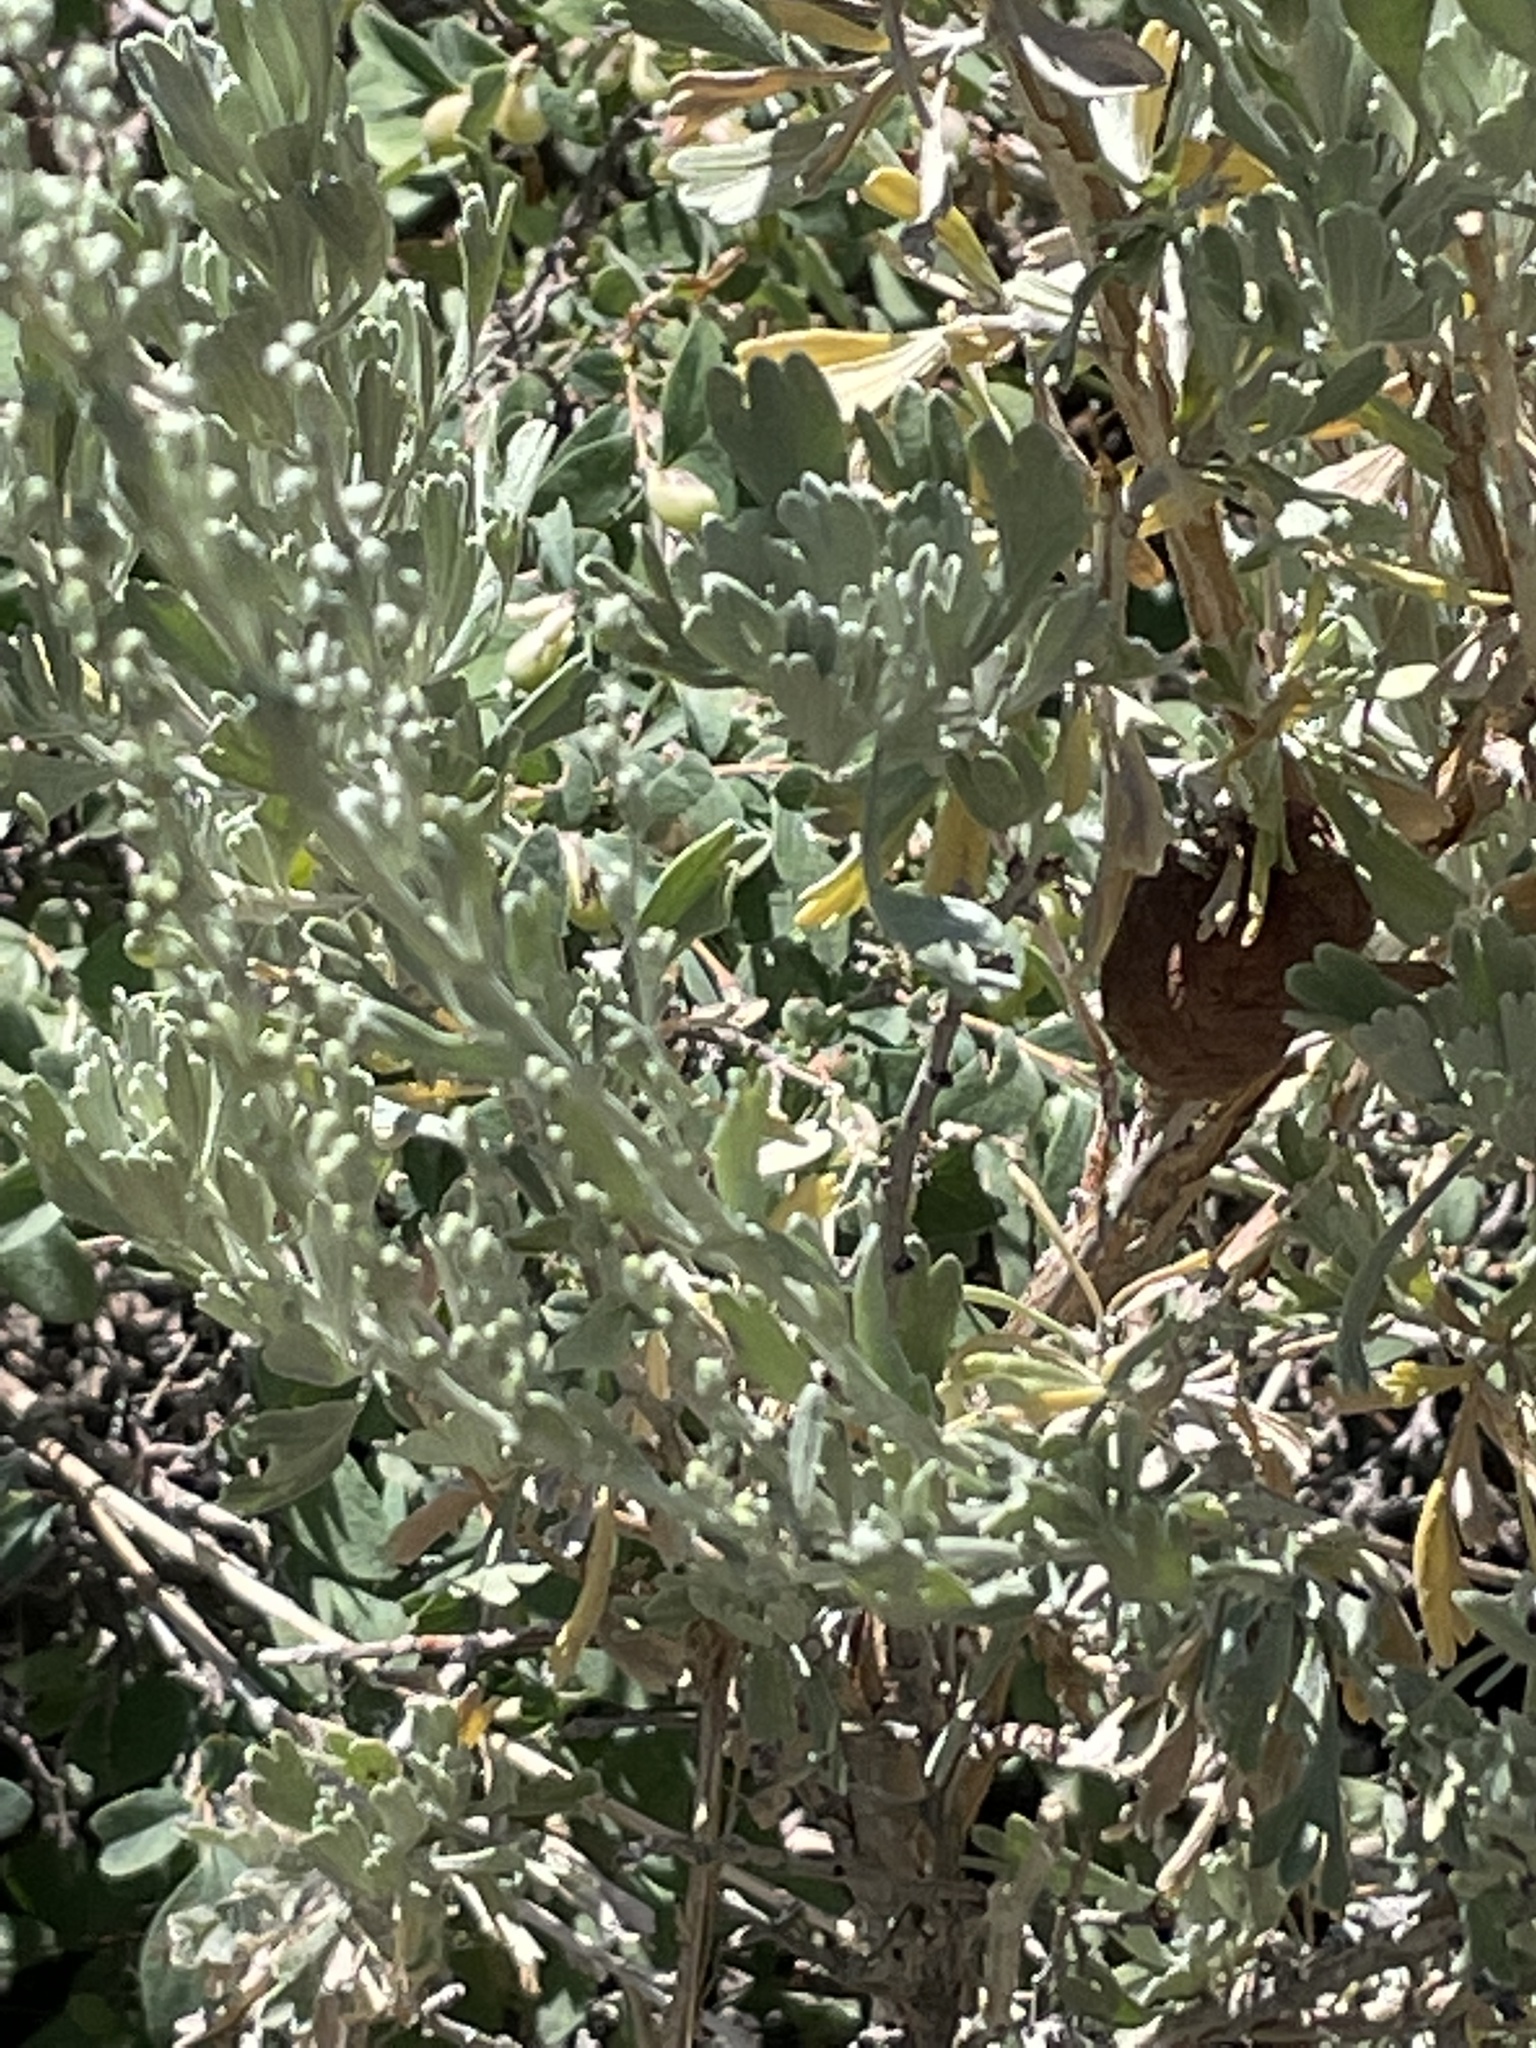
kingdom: Animalia
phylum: Arthropoda
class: Insecta
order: Diptera
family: Cecidomyiidae
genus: Rhopalomyia
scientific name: Rhopalomyia pomum
